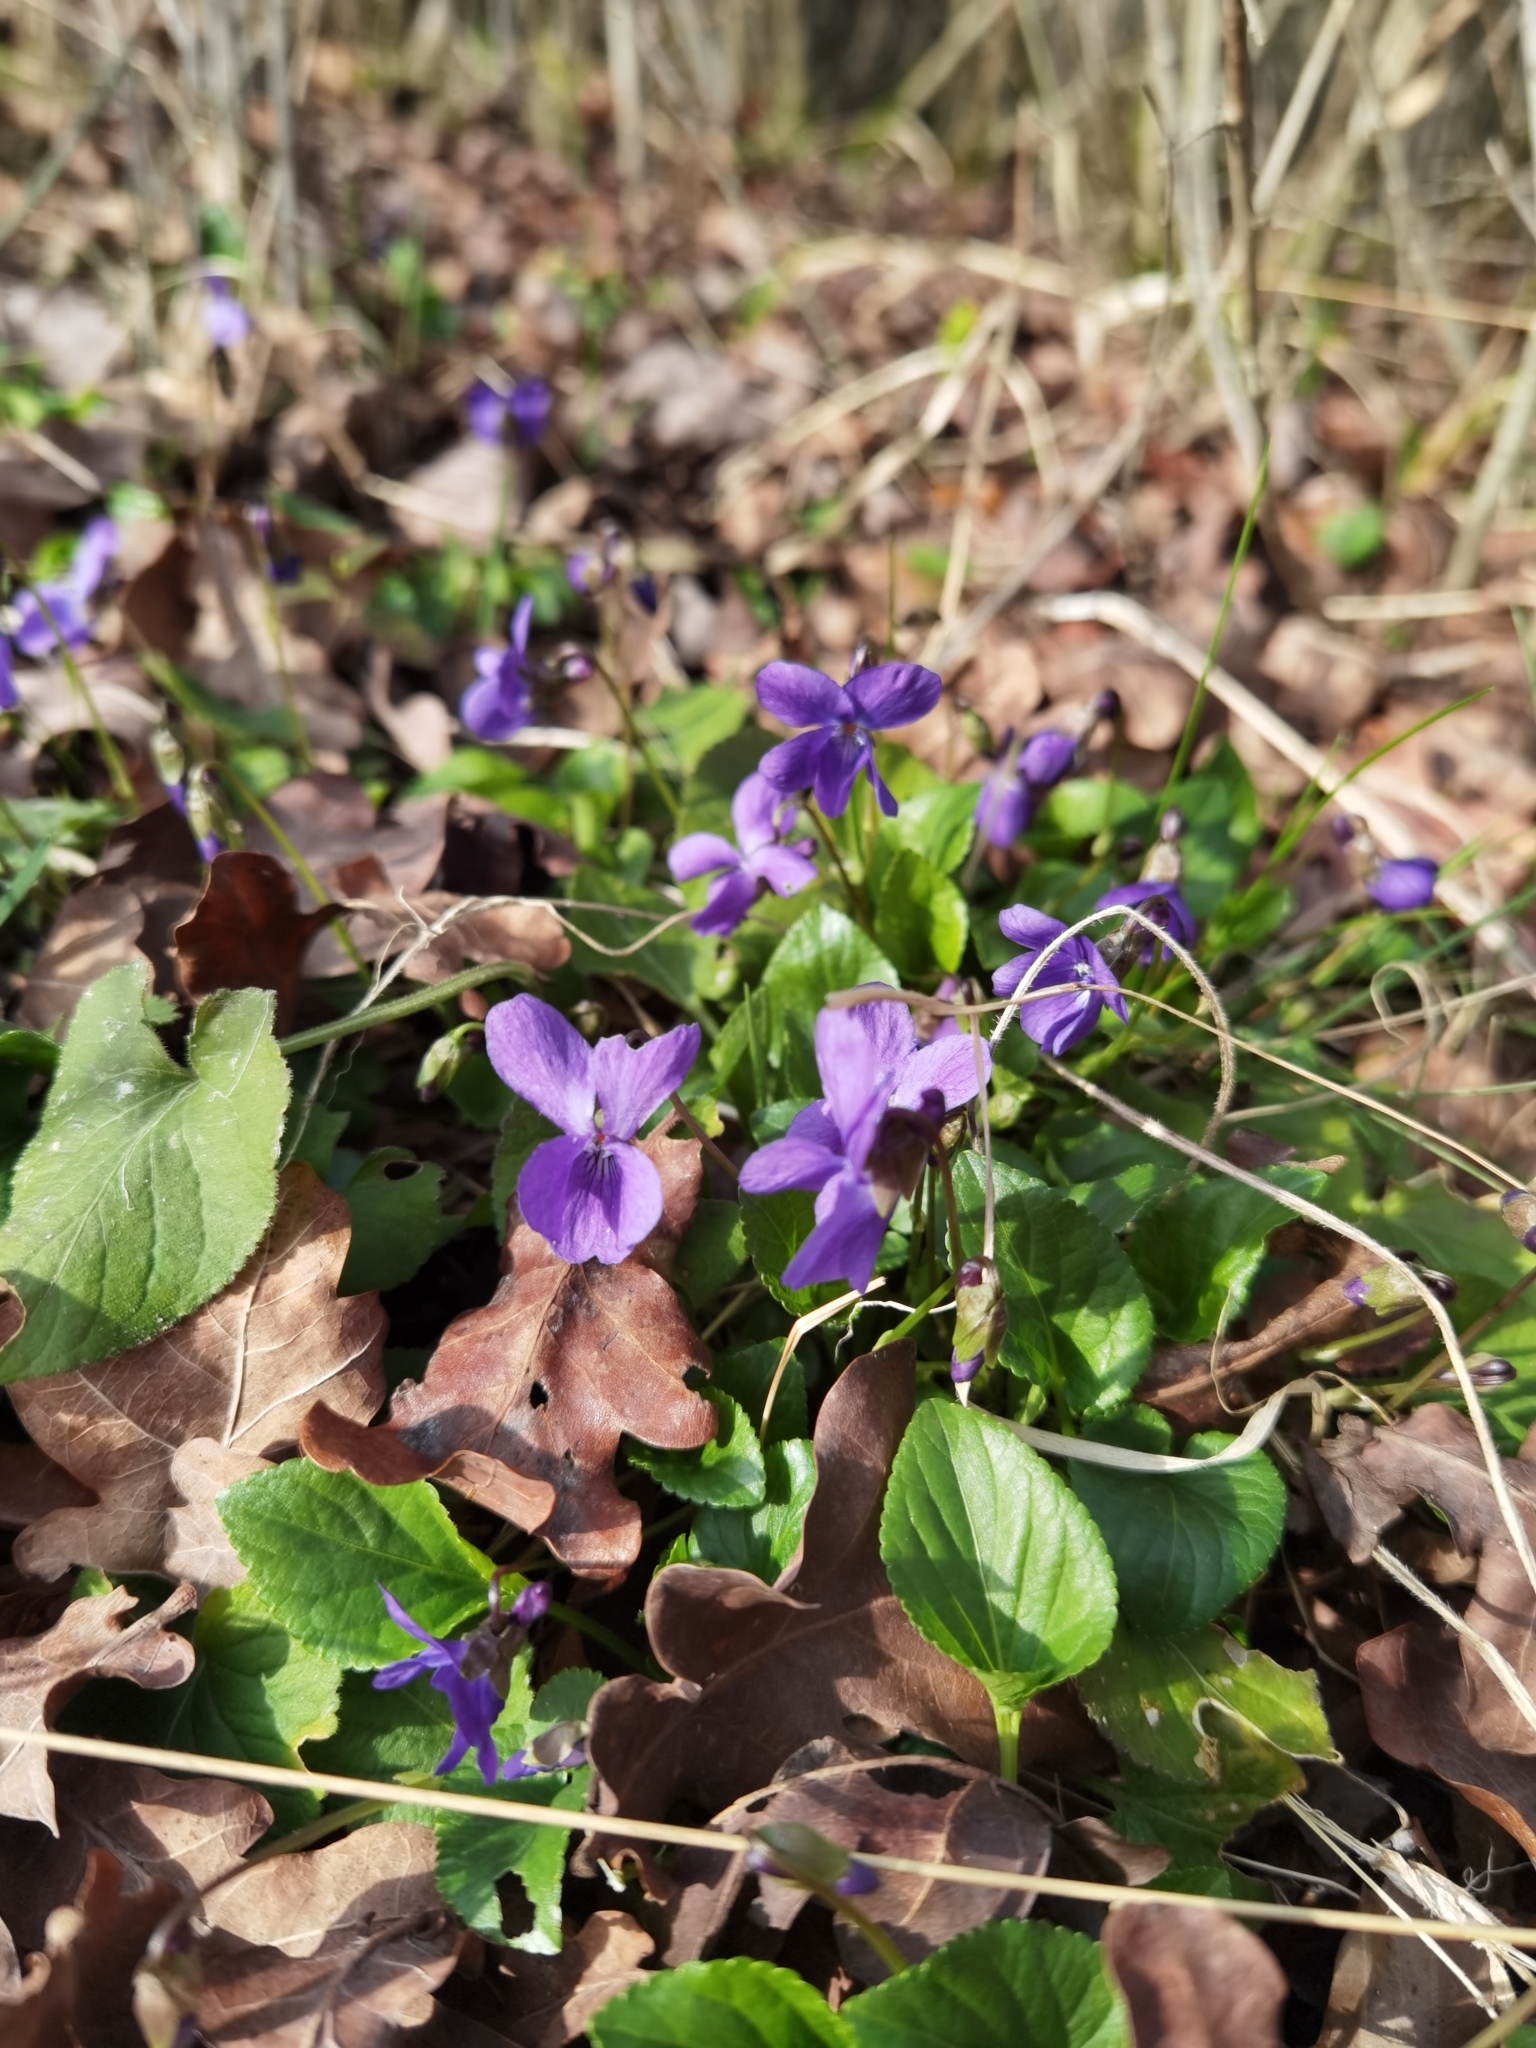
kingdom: Plantae
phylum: Tracheophyta
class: Magnoliopsida
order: Malpighiales
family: Violaceae
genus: Viola
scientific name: Viola odorata
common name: Sweet violet
